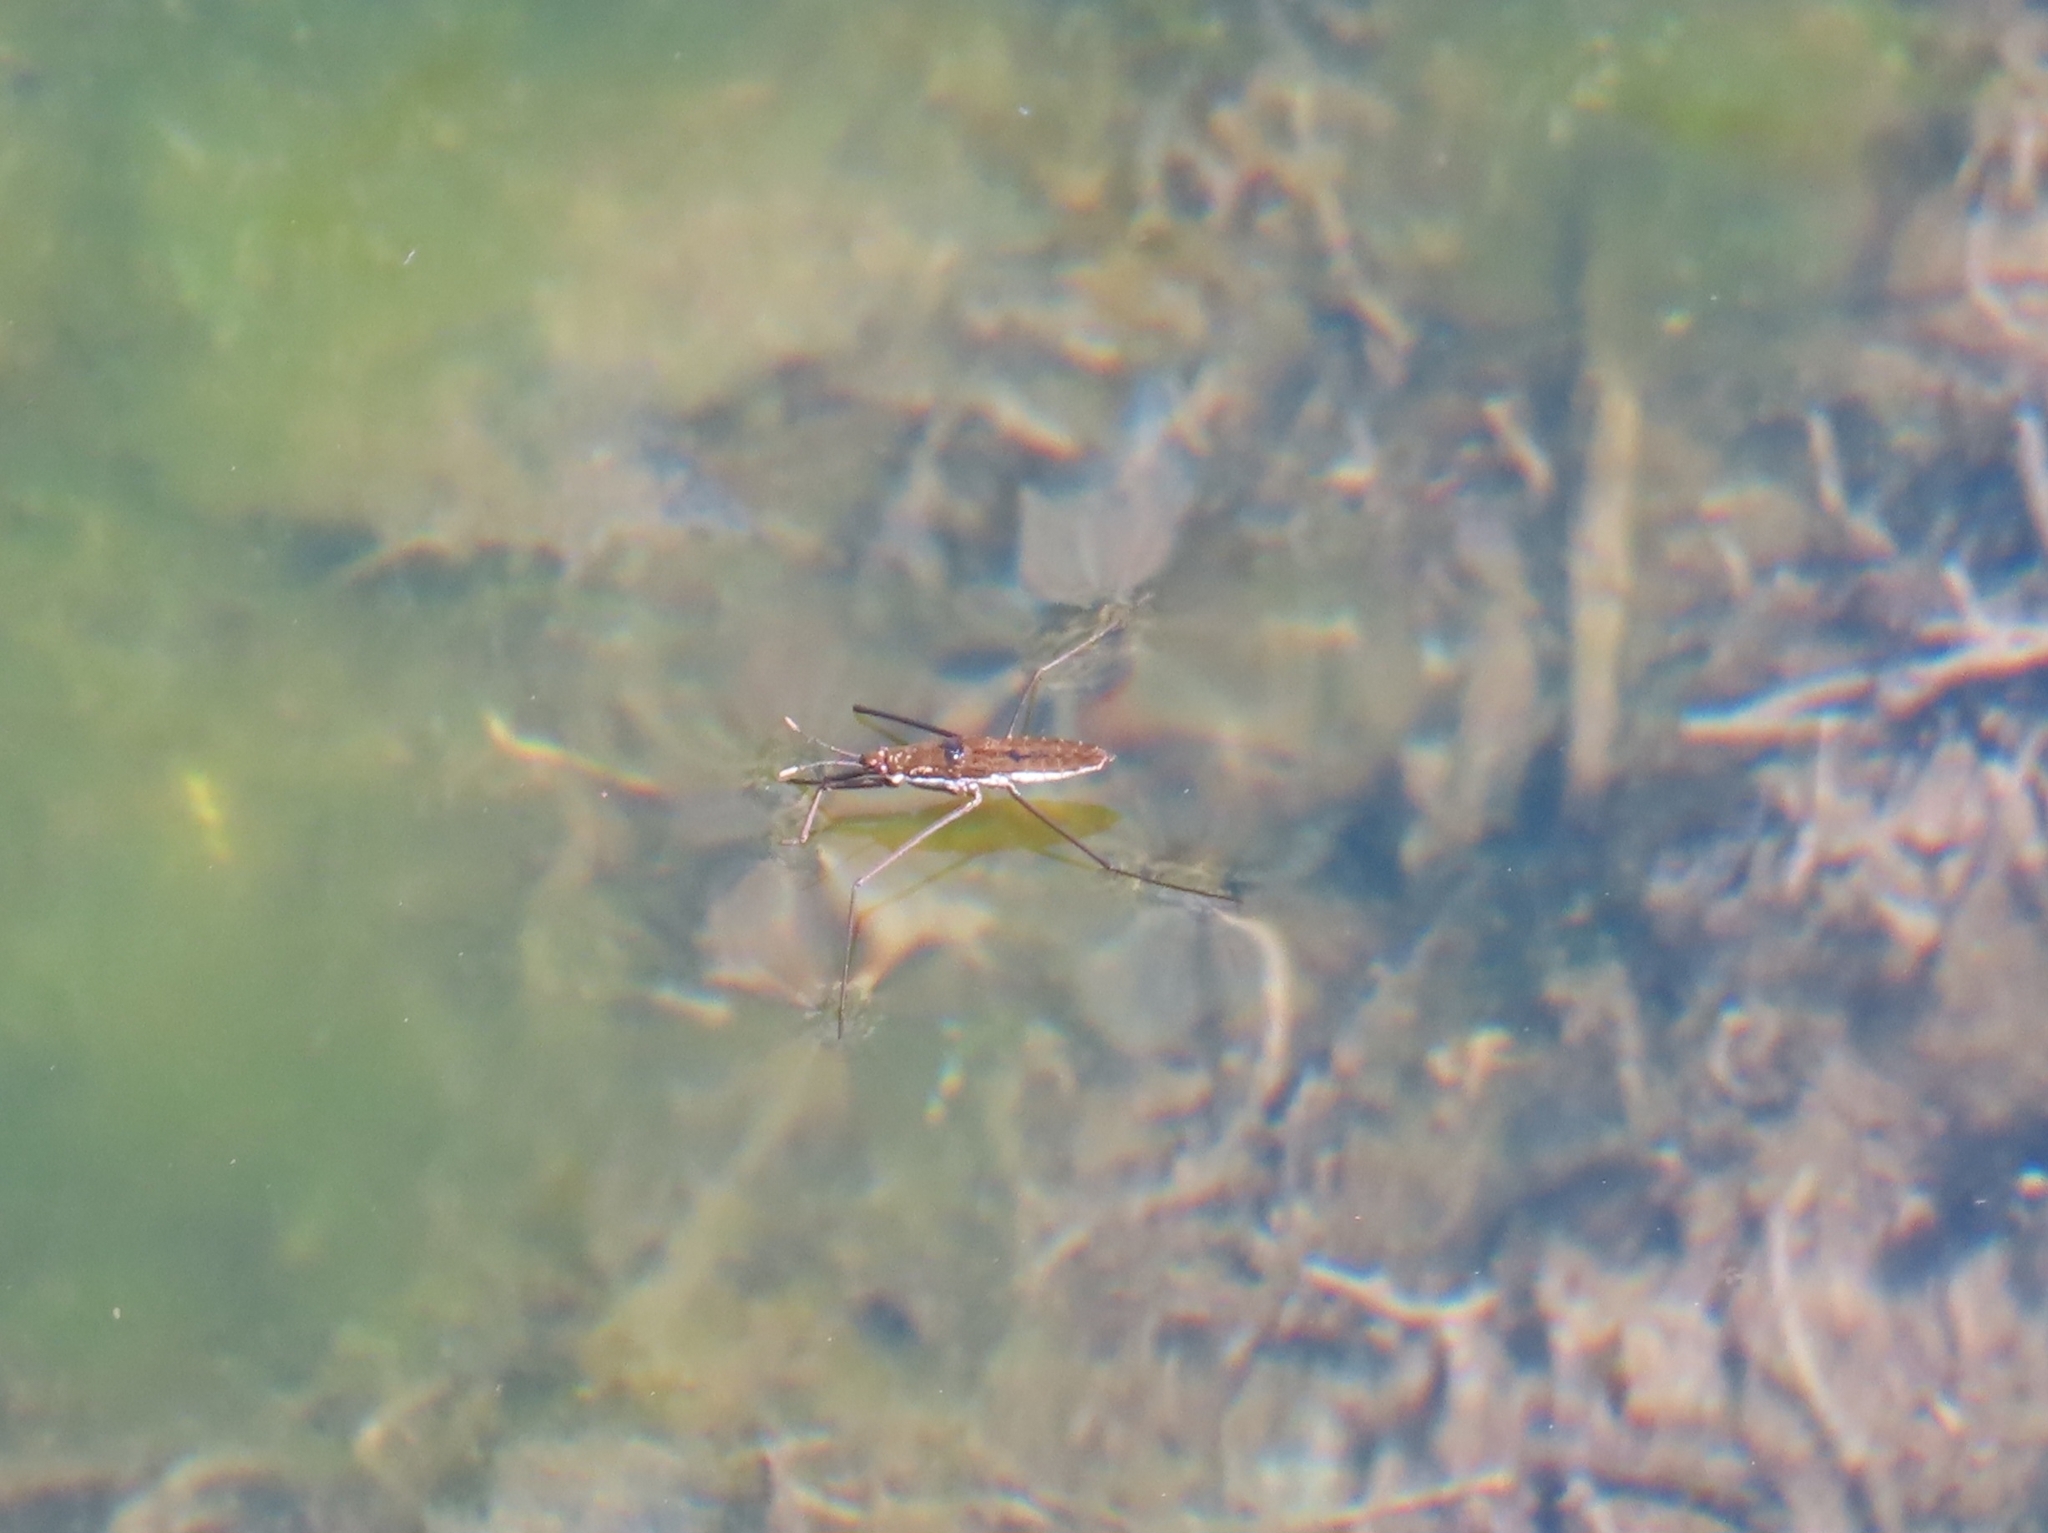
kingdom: Animalia
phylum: Arthropoda
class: Insecta
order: Hemiptera
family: Gerridae
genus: Aquarius
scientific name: Aquarius remigis
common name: Common water strider
